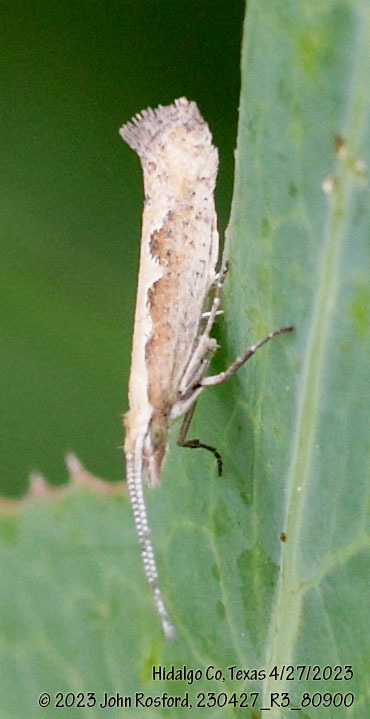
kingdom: Animalia
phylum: Arthropoda
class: Insecta
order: Lepidoptera
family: Plutellidae
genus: Plutella
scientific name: Plutella xylostella
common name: Diamond-back moth
